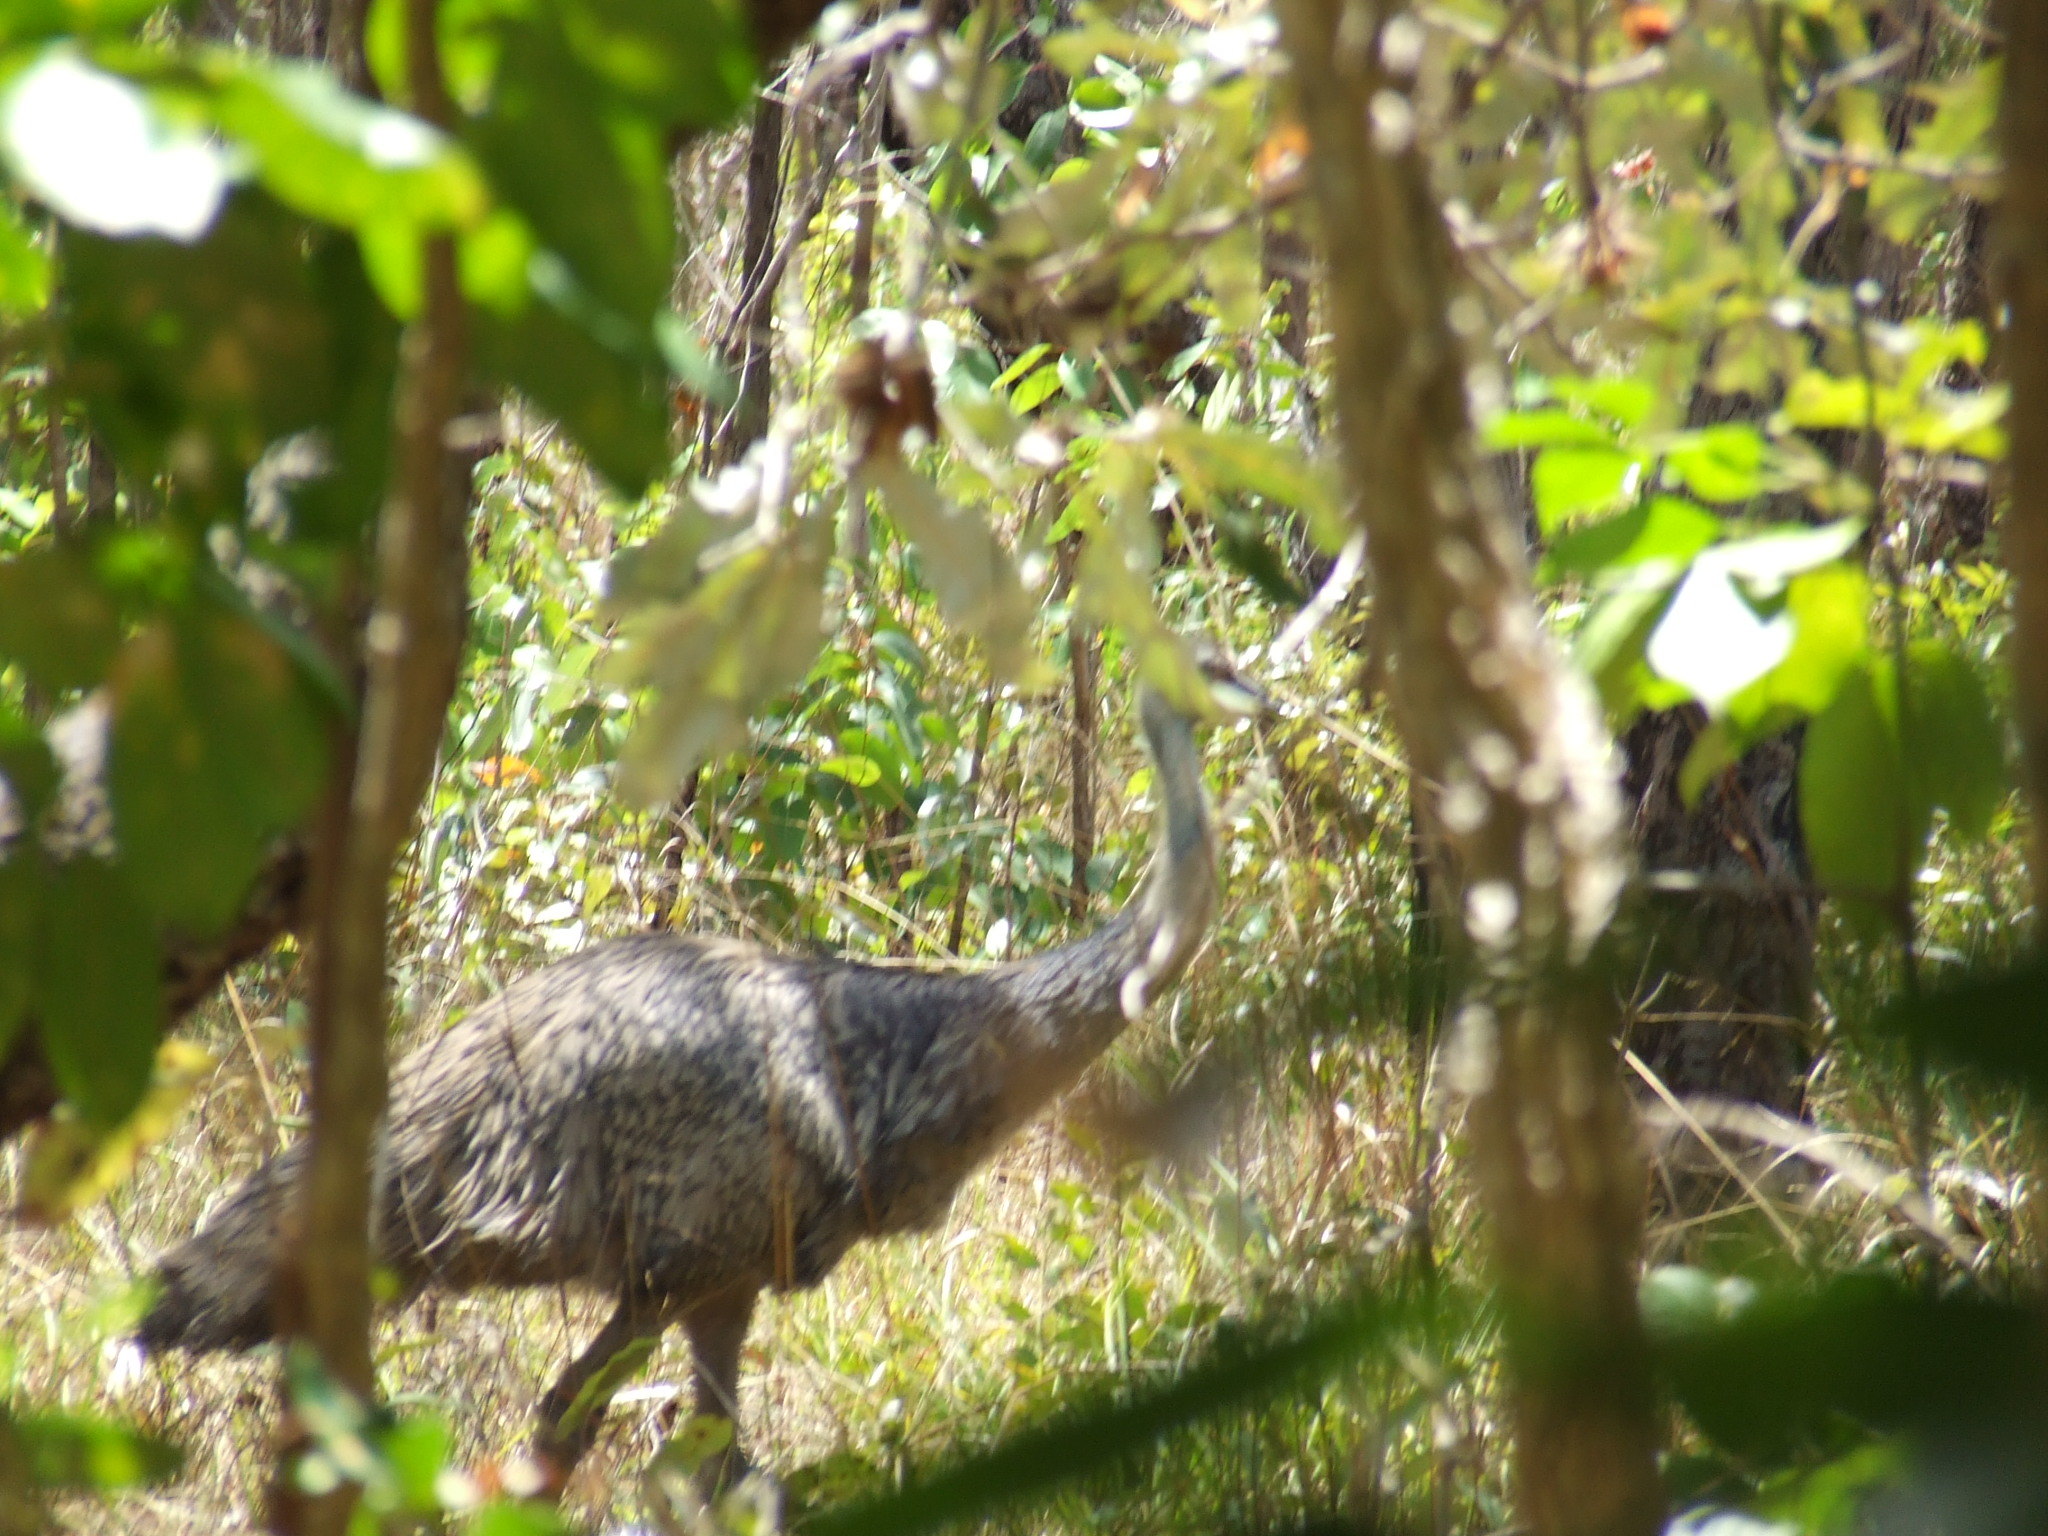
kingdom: Animalia
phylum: Chordata
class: Aves
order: Casuariiformes
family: Dromaiidae
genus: Dromaius
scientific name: Dromaius novaehollandiae
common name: Emu
